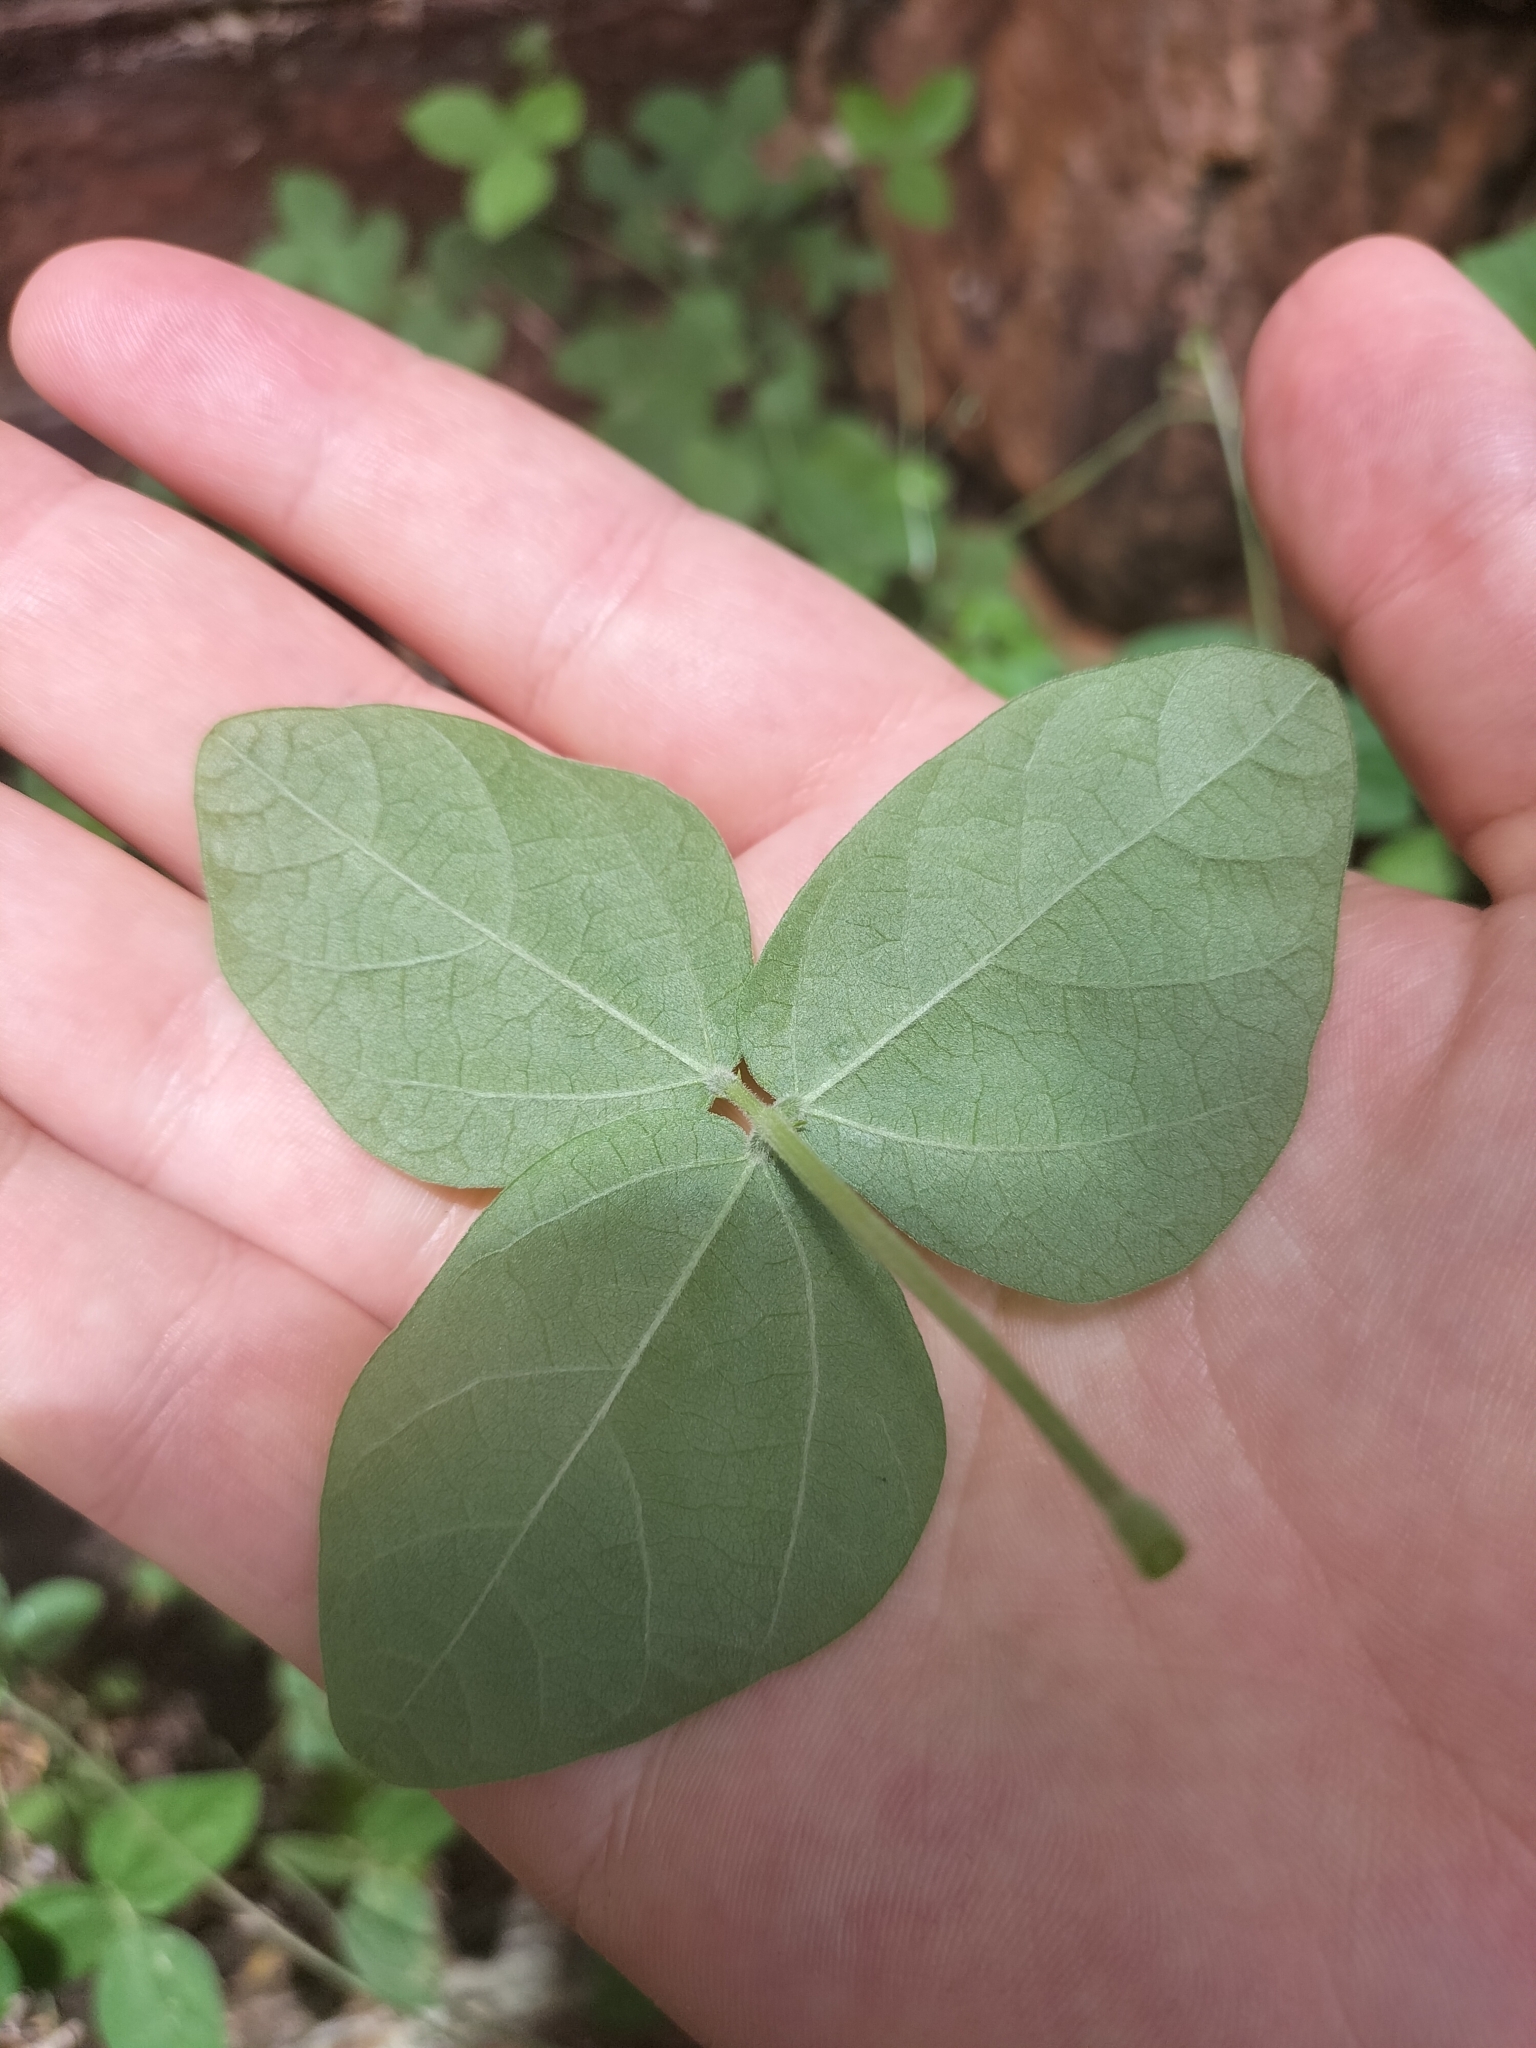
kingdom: Plantae
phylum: Tracheophyta
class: Magnoliopsida
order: Fabales
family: Fabaceae
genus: Macroptilium
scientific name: Macroptilium atropurpureum
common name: Purple bushbean
